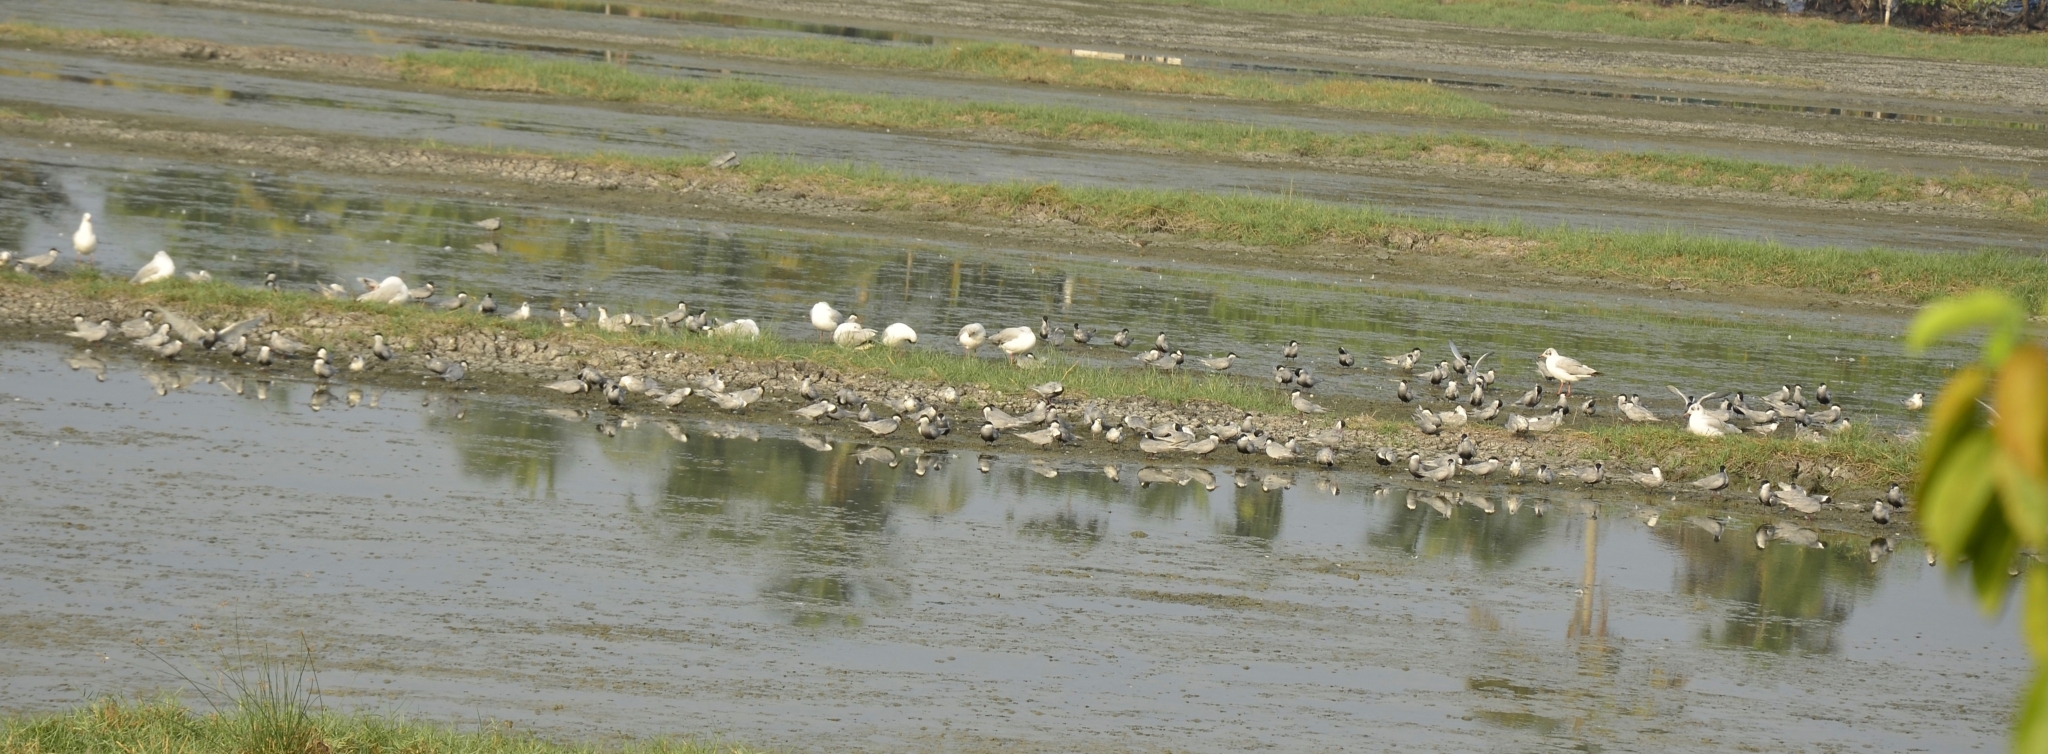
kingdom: Animalia
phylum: Chordata
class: Aves
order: Charadriiformes
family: Laridae
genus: Chlidonias
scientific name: Chlidonias hybrida
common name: Whiskered tern
